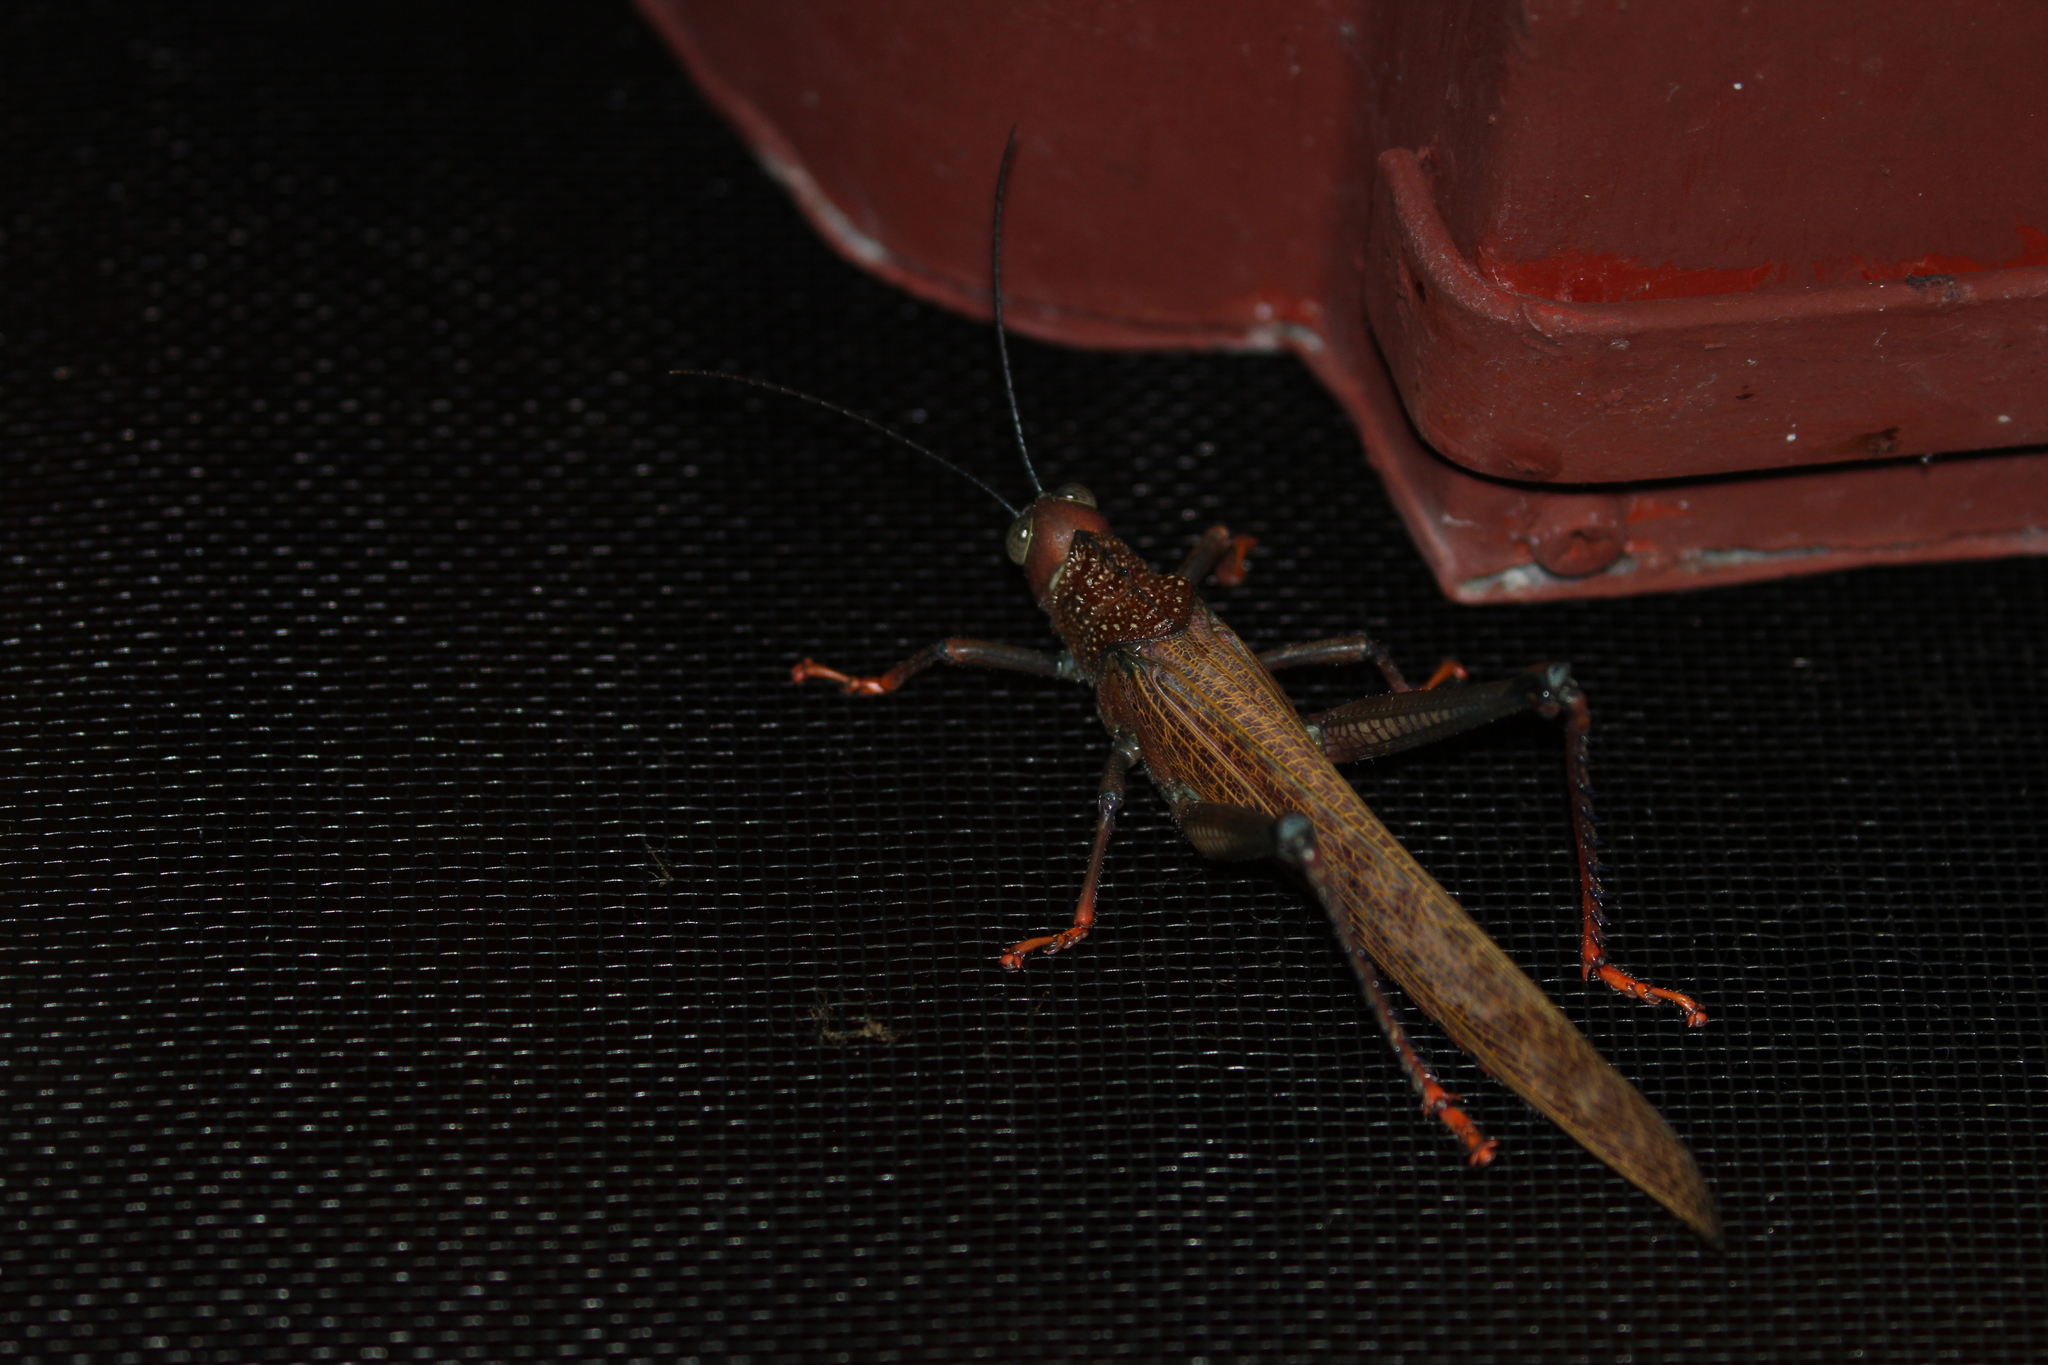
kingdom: Animalia
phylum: Arthropoda
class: Insecta
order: Orthoptera
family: Romaleidae
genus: Tropidacris
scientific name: Tropidacris cristata
